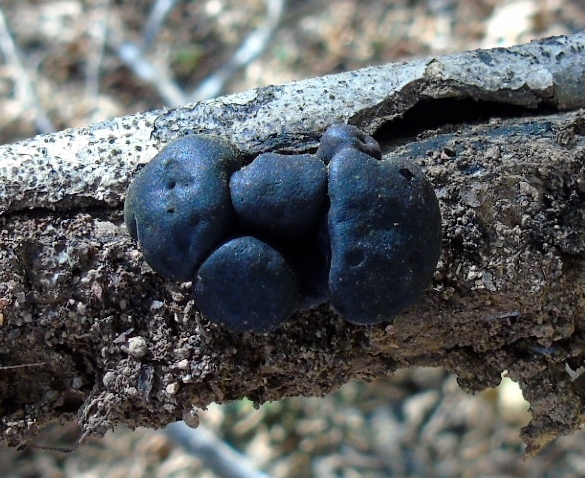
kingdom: Fungi
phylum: Ascomycota
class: Sordariomycetes
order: Xylariales
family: Hypoxylaceae
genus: Daldinia
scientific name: Daldinia
